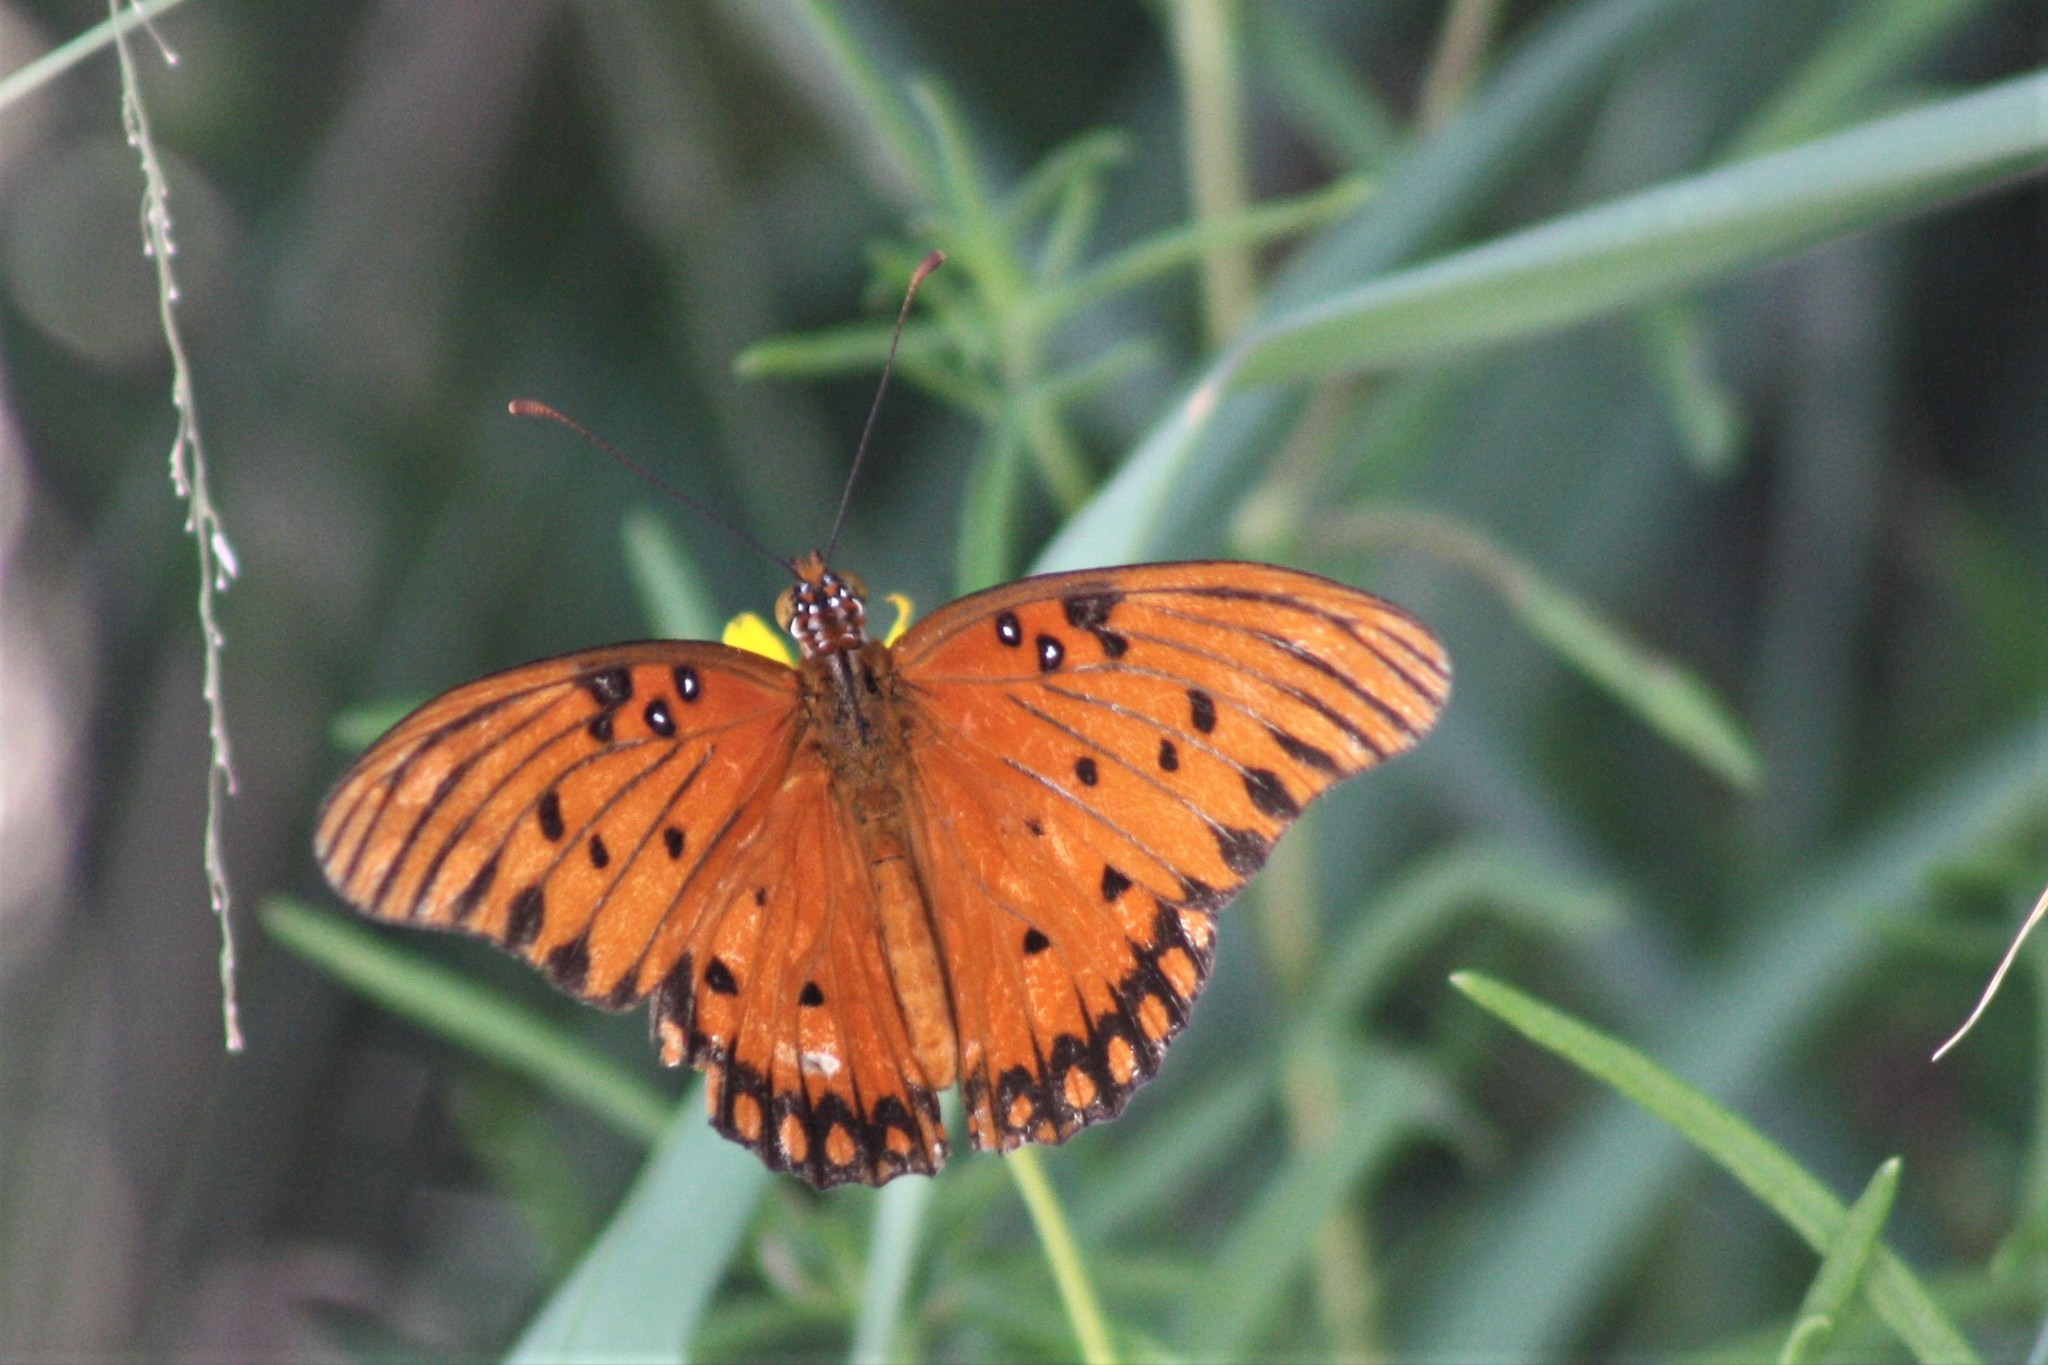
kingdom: Animalia
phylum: Arthropoda
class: Insecta
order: Lepidoptera
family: Nymphalidae
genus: Dione
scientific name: Dione vanillae
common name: Gulf fritillary
